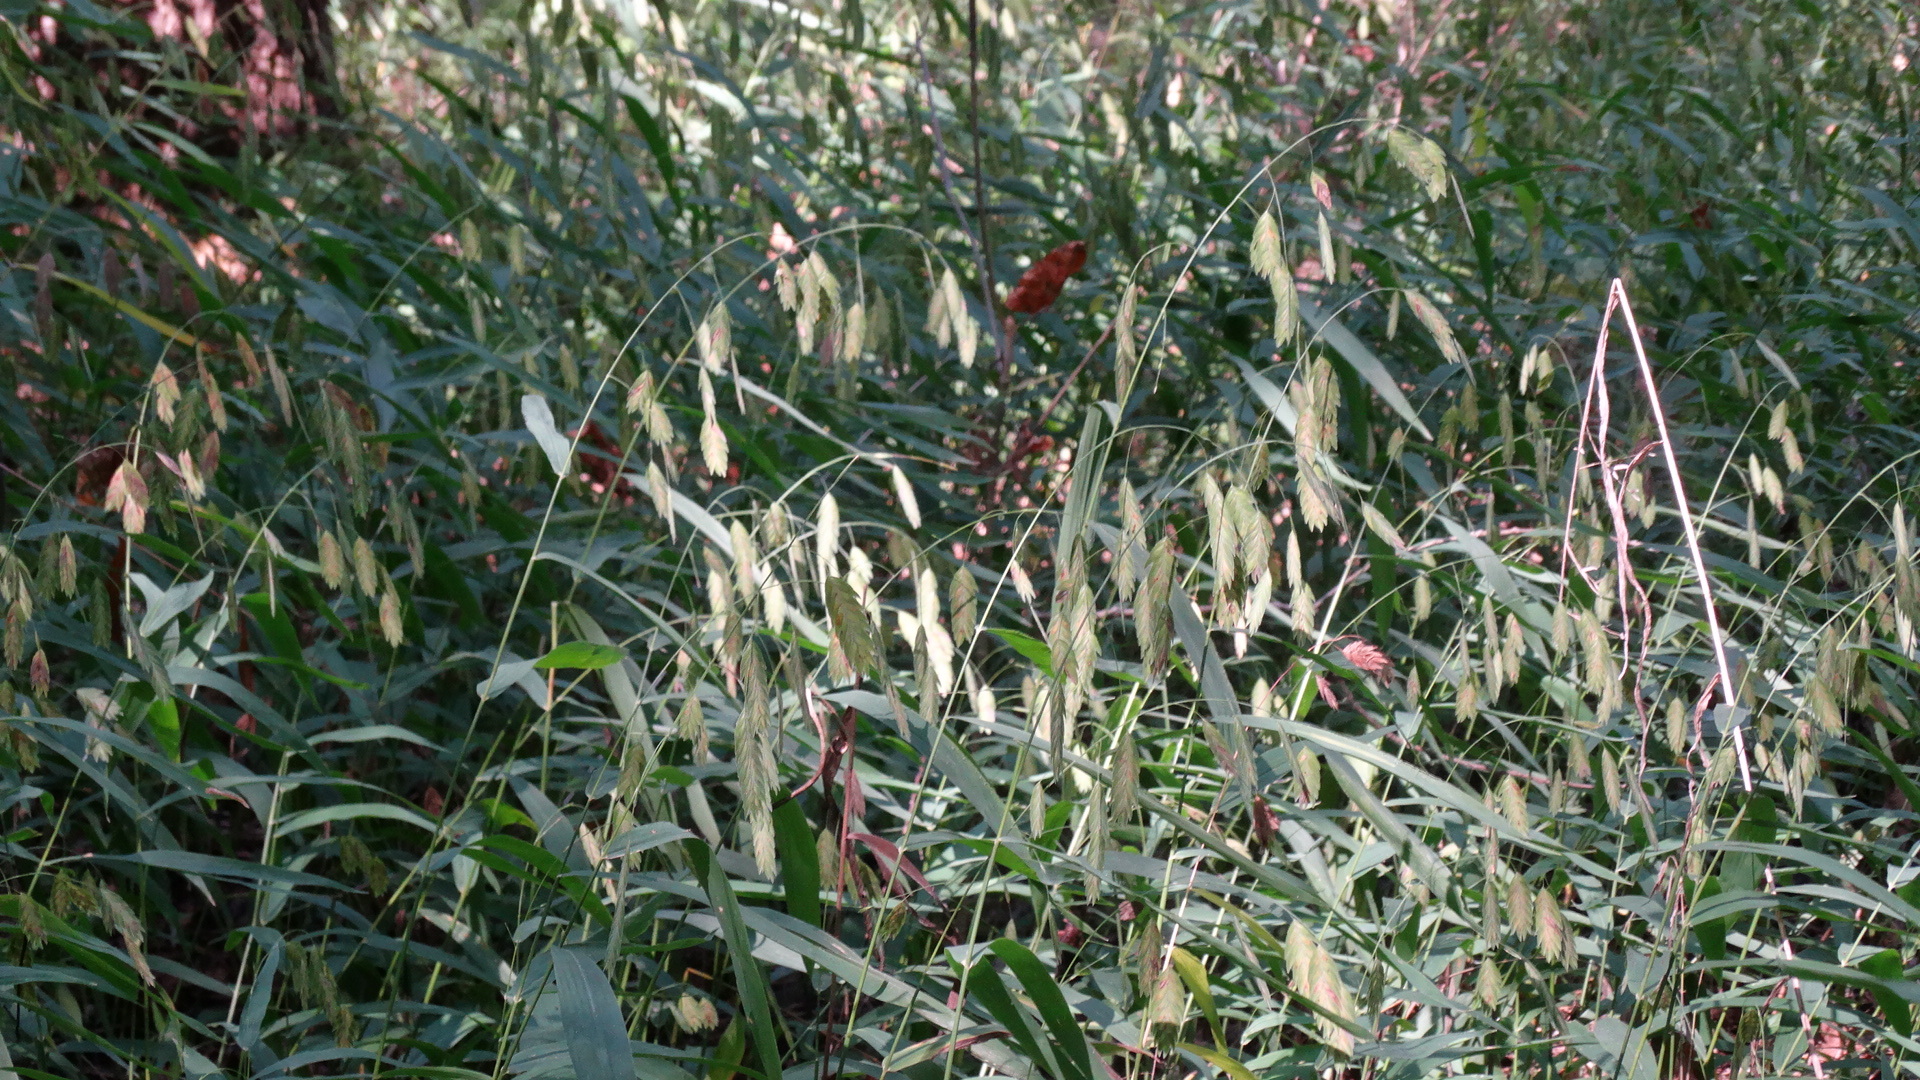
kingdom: Plantae
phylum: Tracheophyta
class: Liliopsida
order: Poales
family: Poaceae
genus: Chasmanthium
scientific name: Chasmanthium latifolium
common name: Broad-leaved chasmanthium
